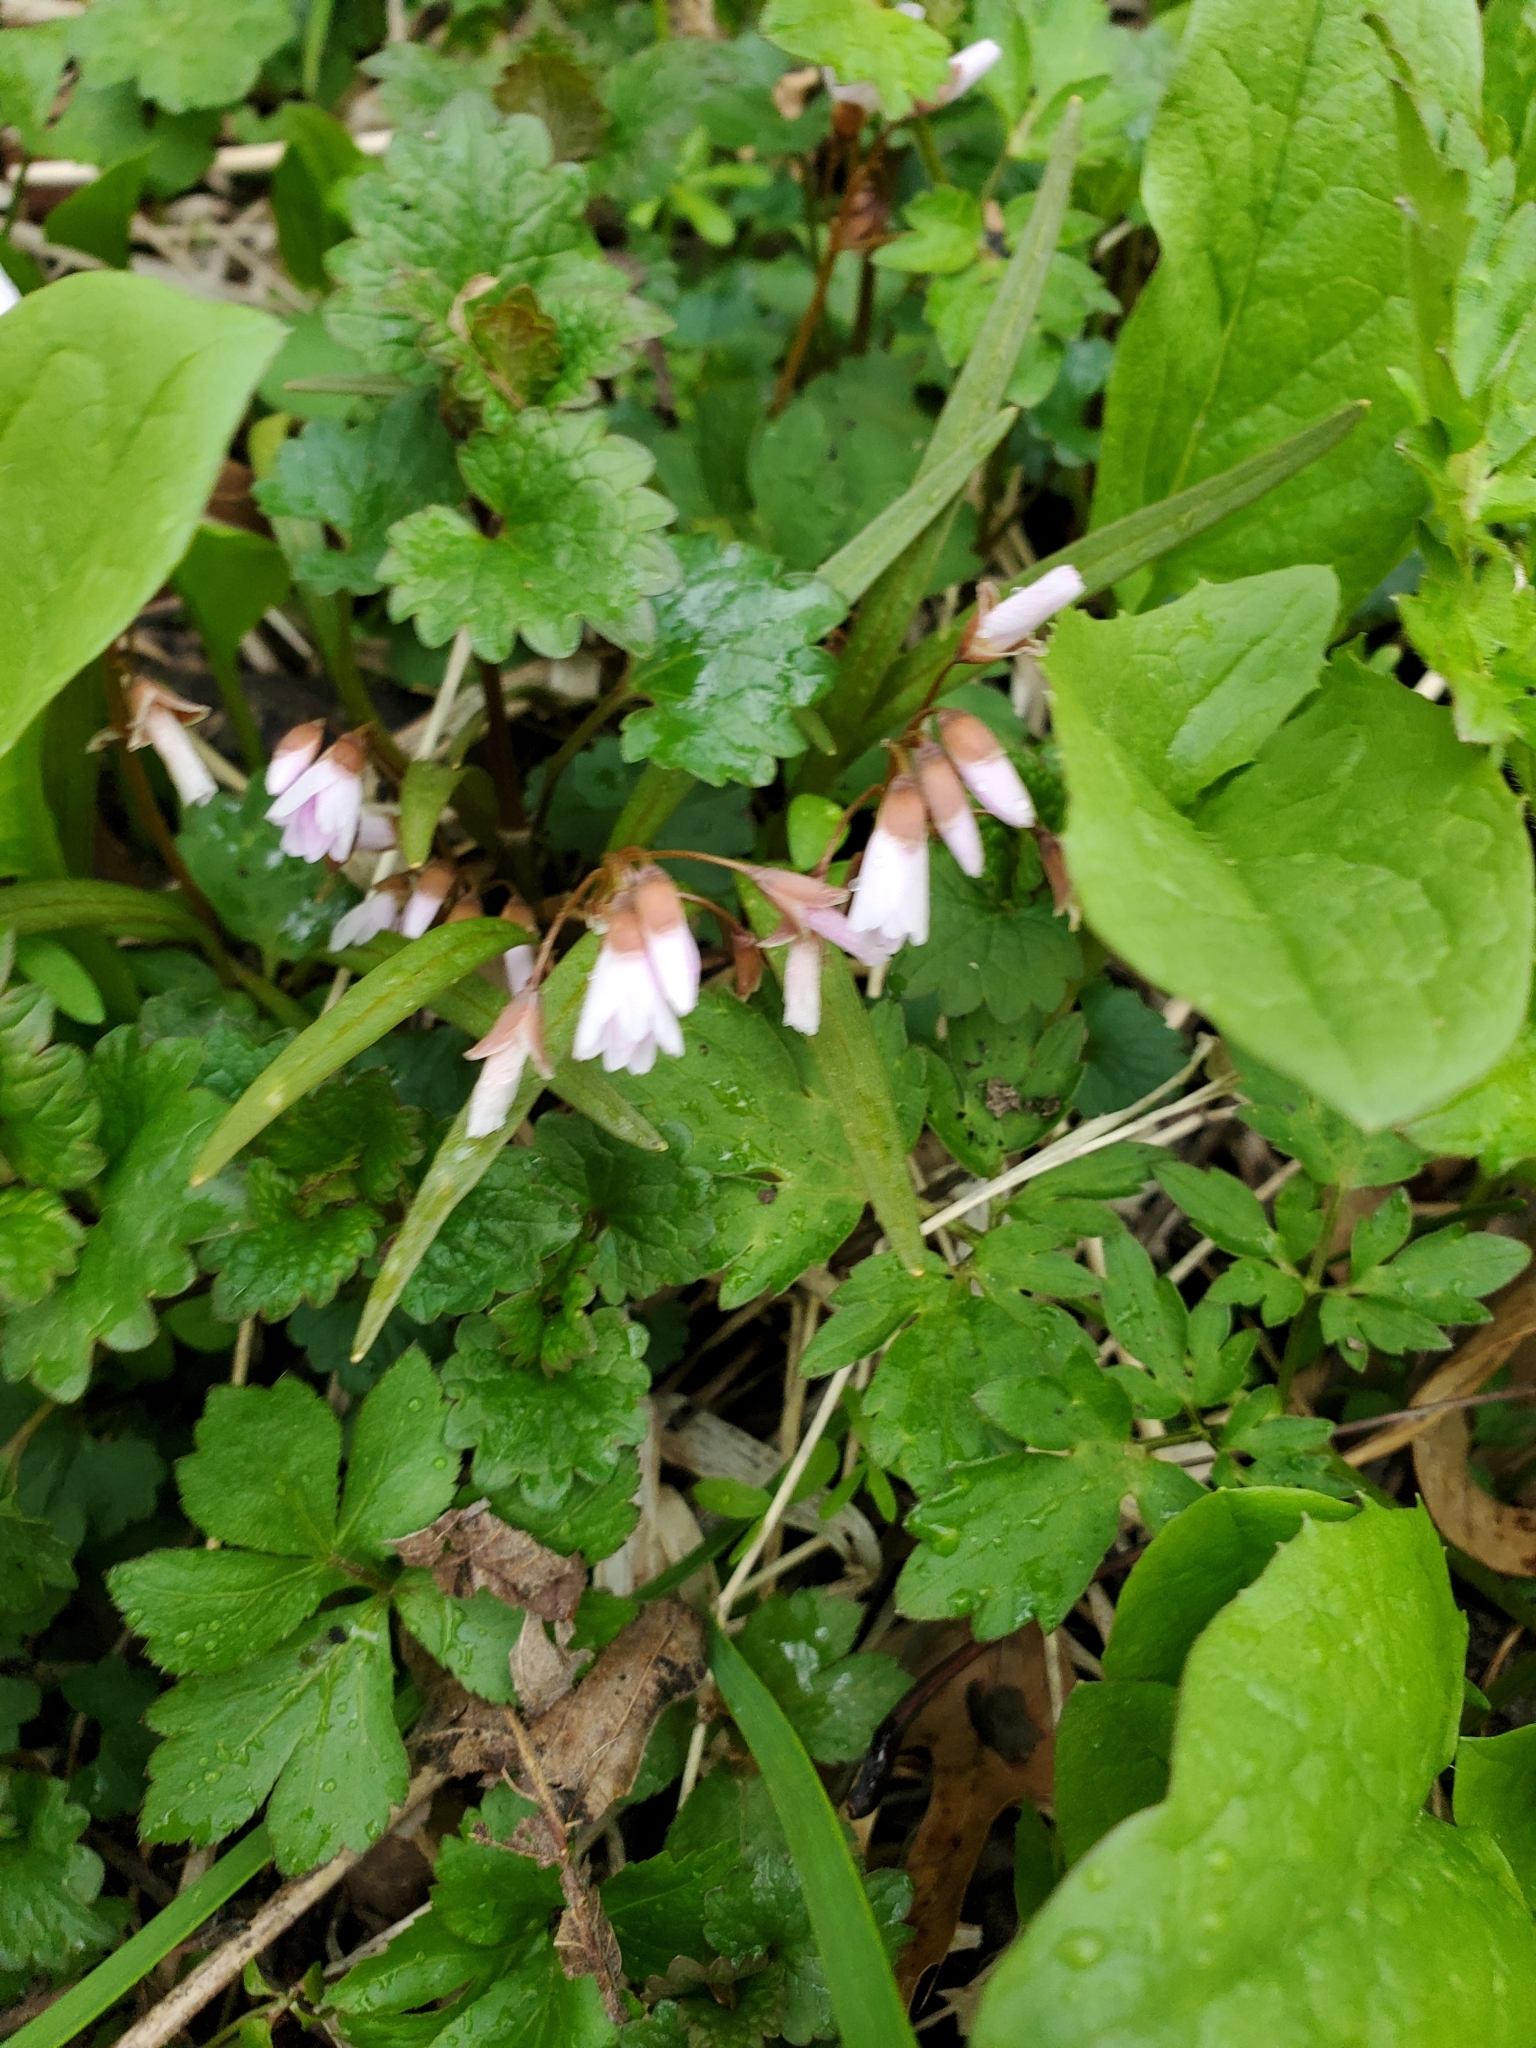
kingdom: Plantae
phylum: Tracheophyta
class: Magnoliopsida
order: Caryophyllales
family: Montiaceae
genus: Claytonia
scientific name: Claytonia virginica
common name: Virginia springbeauty
